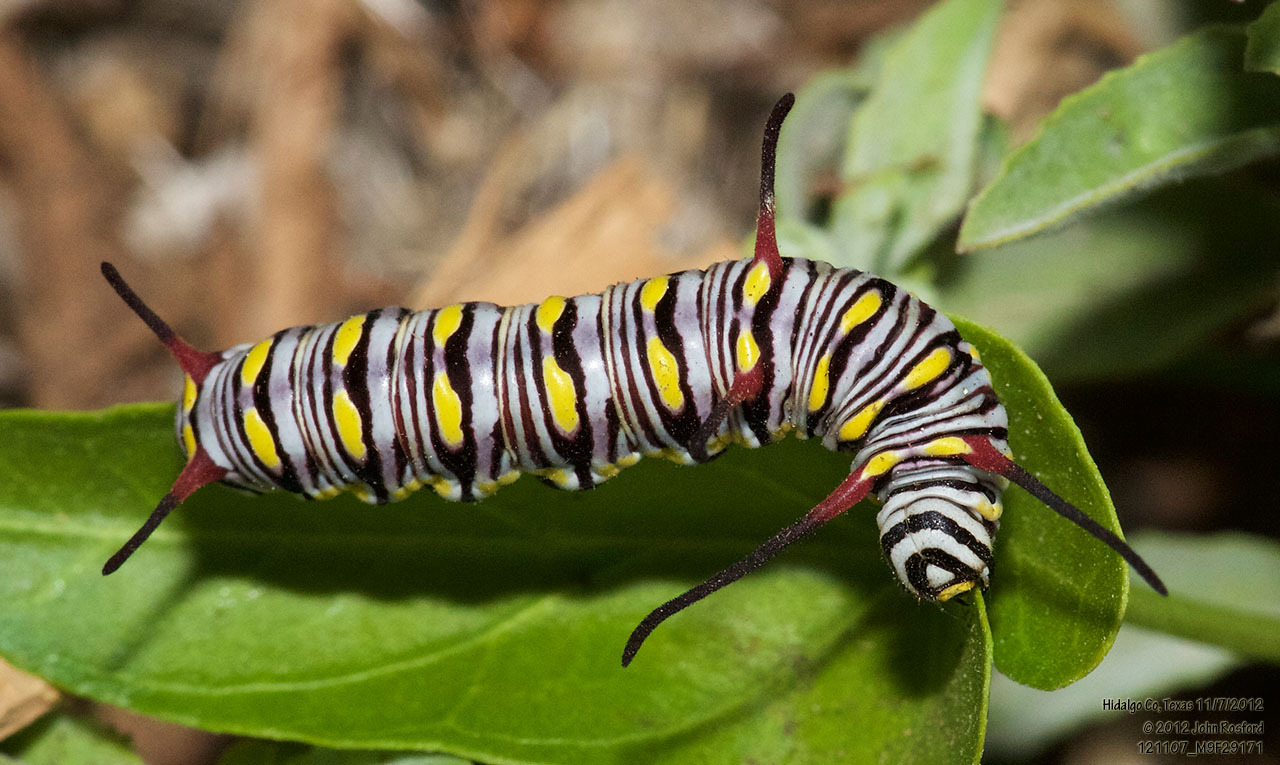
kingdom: Animalia
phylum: Arthropoda
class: Insecta
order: Lepidoptera
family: Nymphalidae
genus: Danaus
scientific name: Danaus gilippus
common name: Queen
